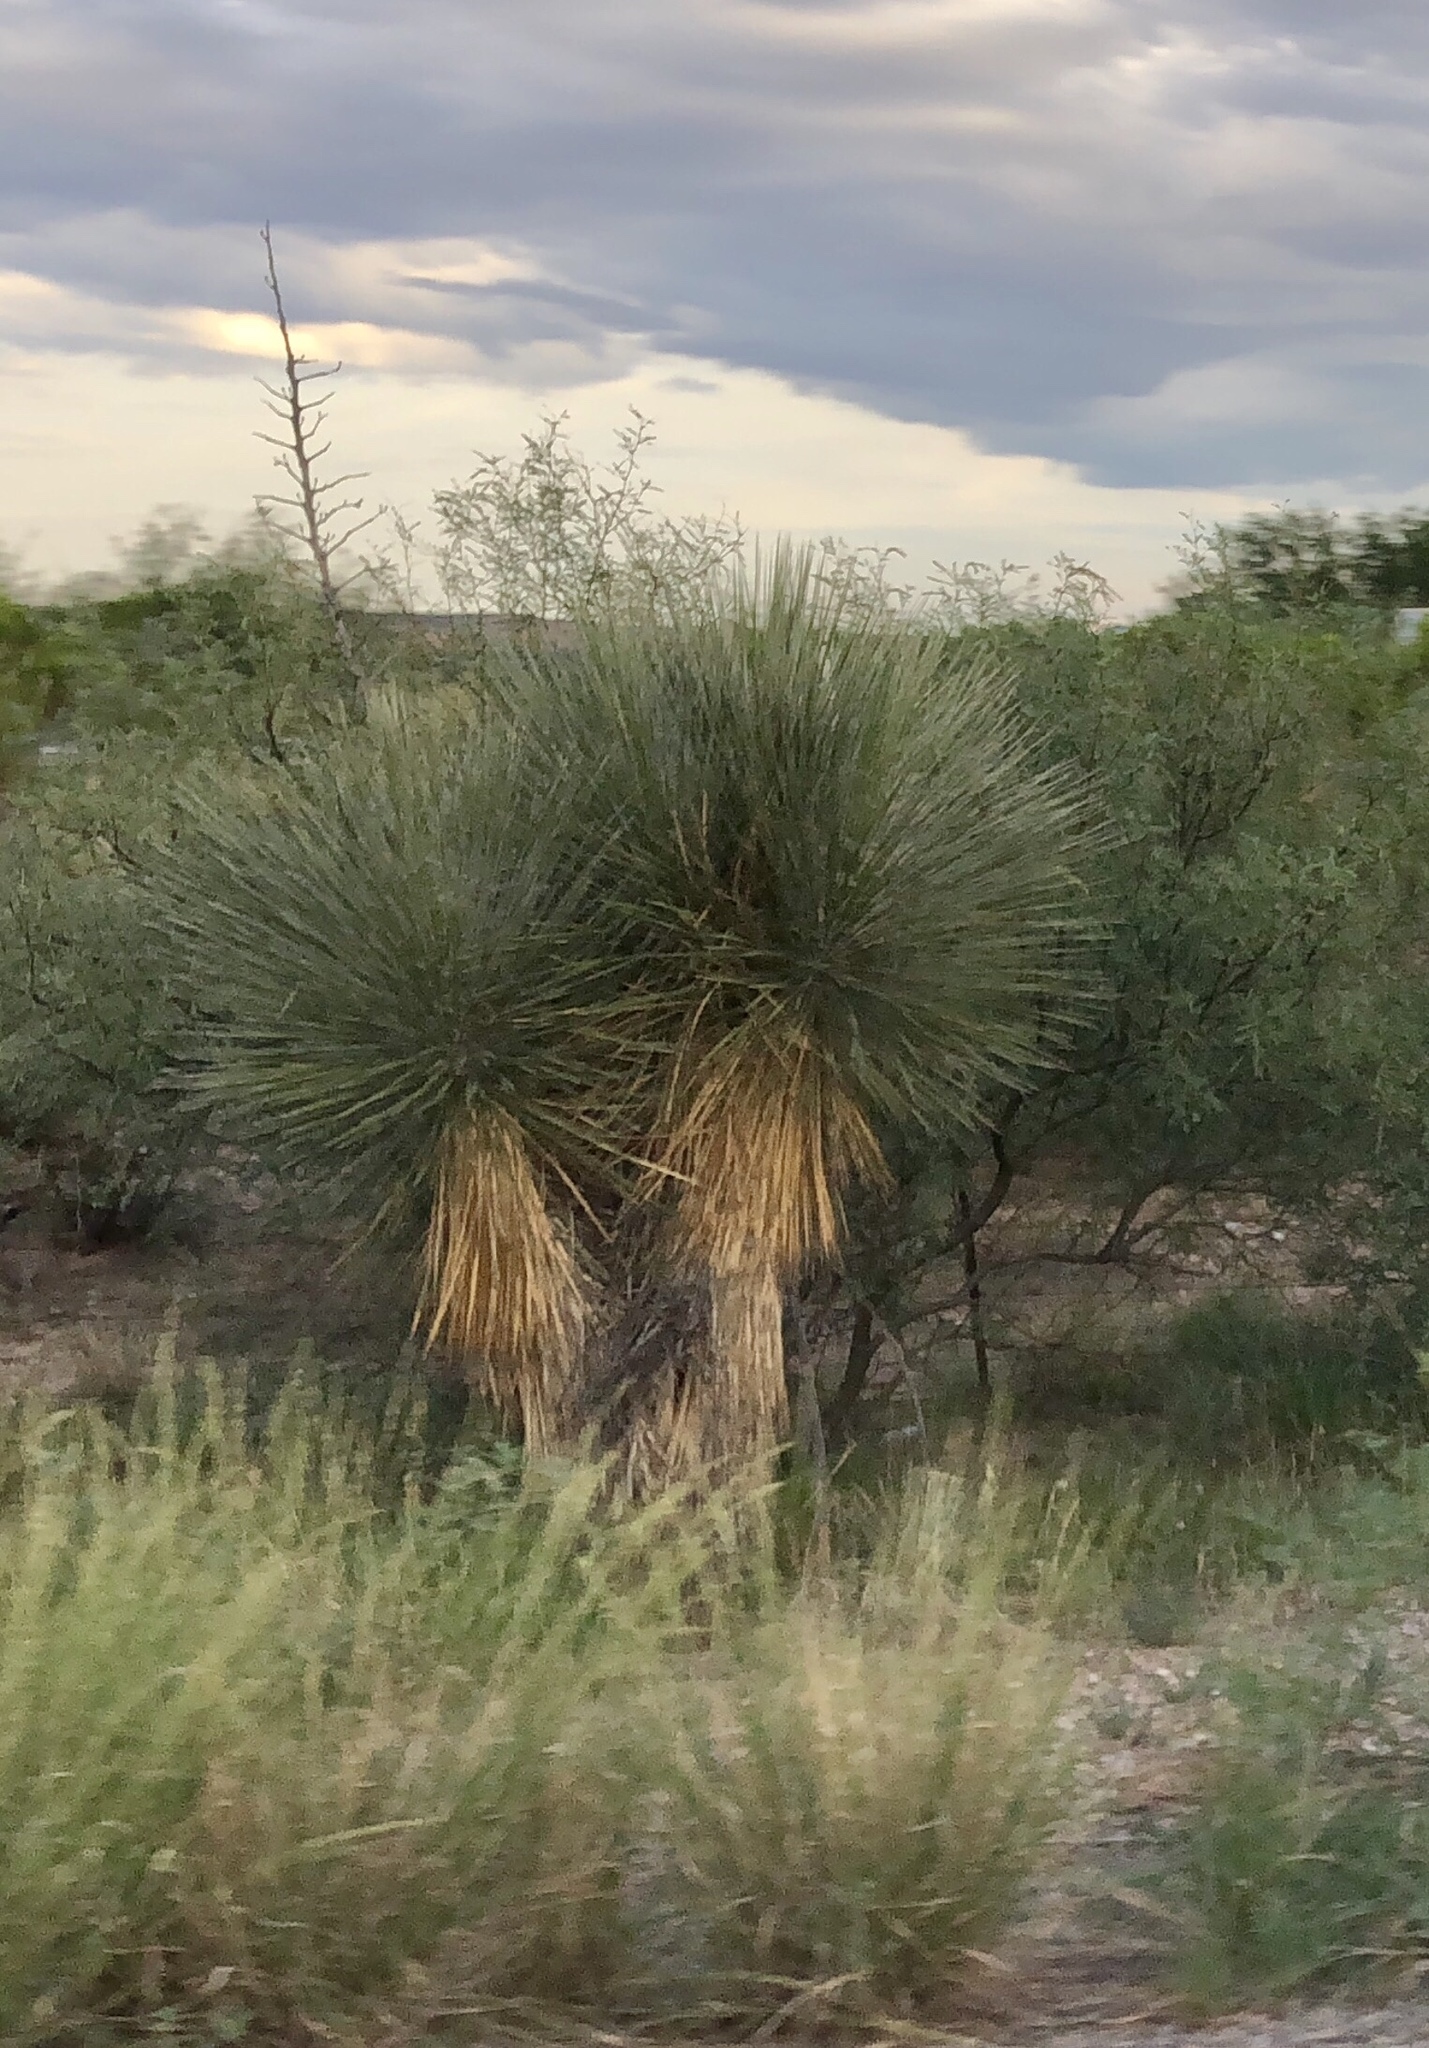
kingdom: Plantae
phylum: Tracheophyta
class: Liliopsida
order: Asparagales
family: Asparagaceae
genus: Yucca
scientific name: Yucca elata
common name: Palmella
